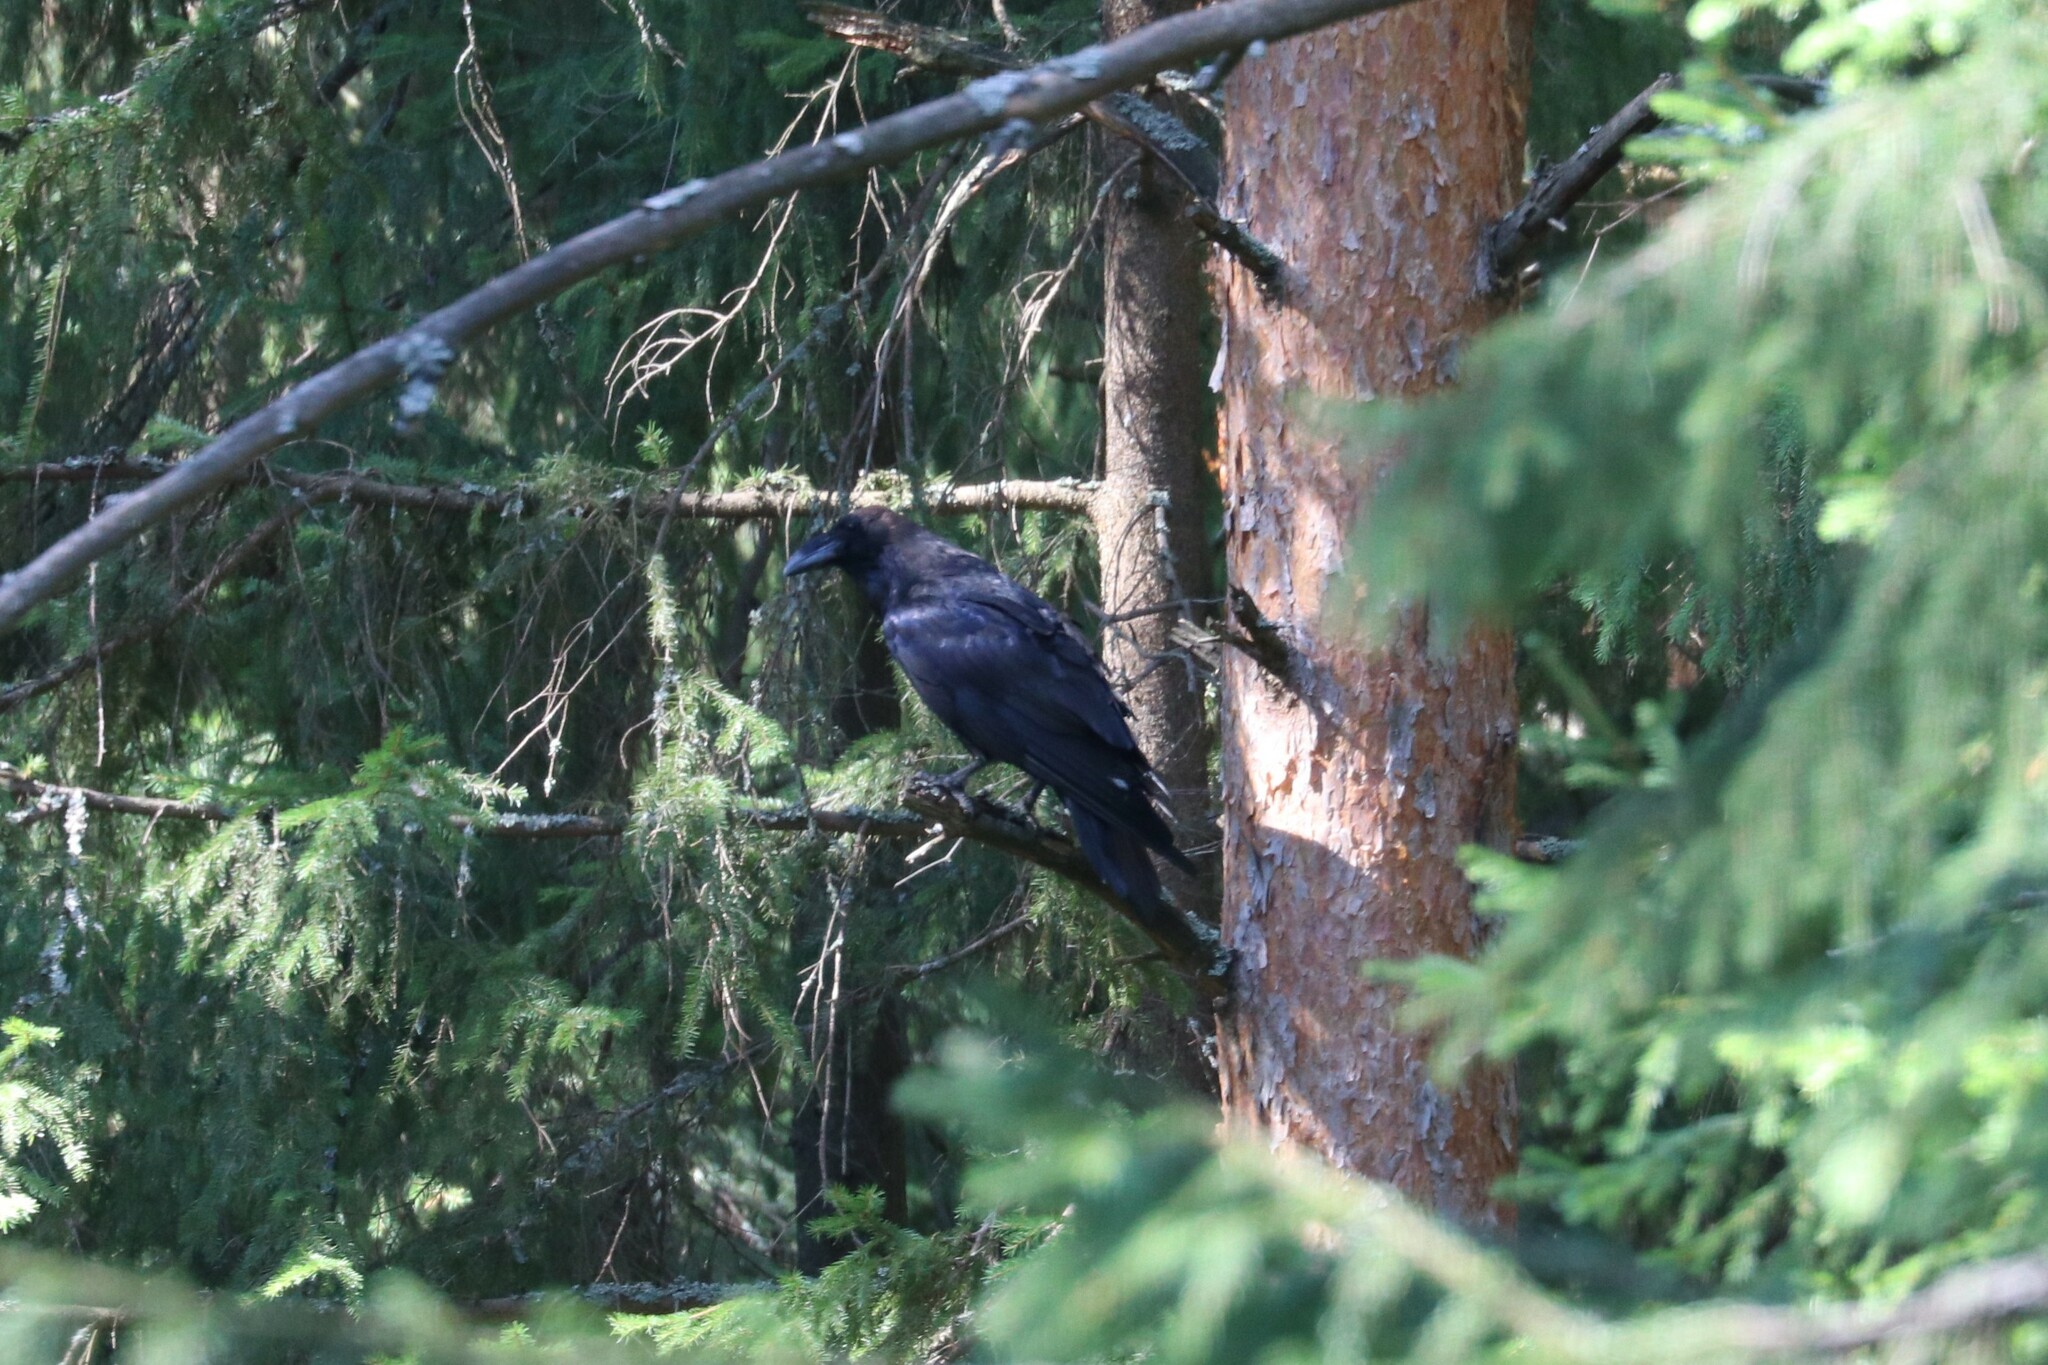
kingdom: Animalia
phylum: Chordata
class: Aves
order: Passeriformes
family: Corvidae
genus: Corvus
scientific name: Corvus corax
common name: Common raven
